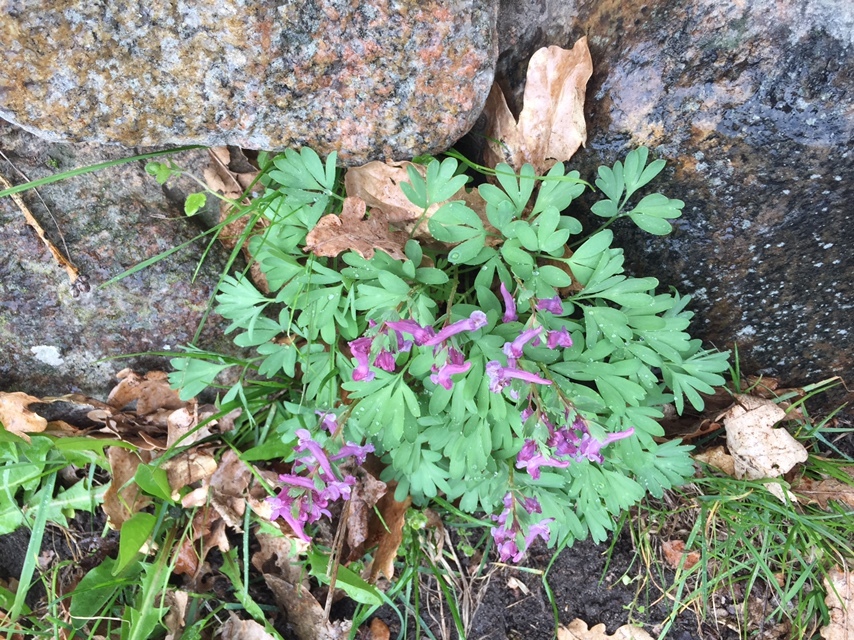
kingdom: Plantae
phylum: Tracheophyta
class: Magnoliopsida
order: Ranunculales
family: Papaveraceae
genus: Corydalis
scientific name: Corydalis solida
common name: Bird-in-a-bush
